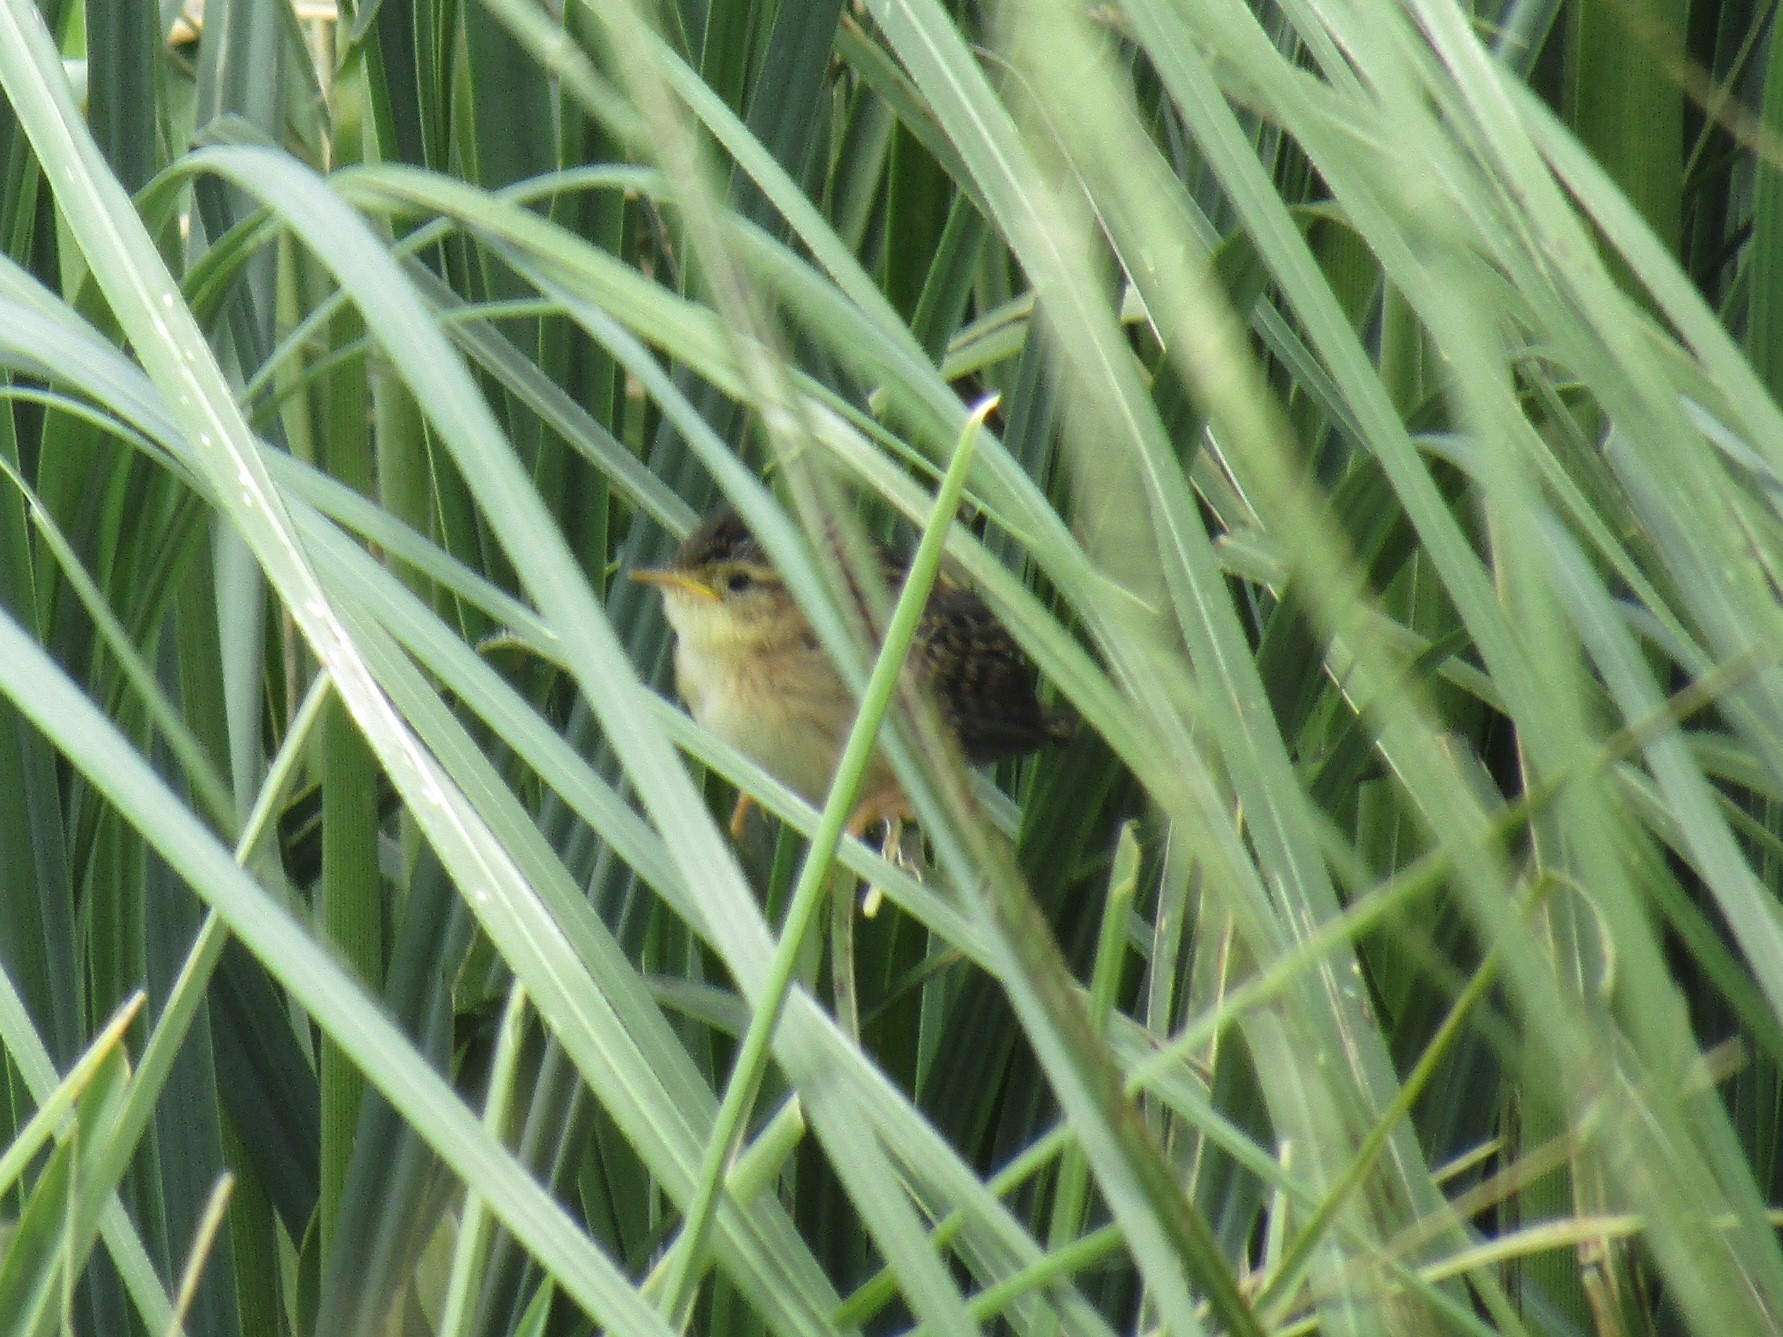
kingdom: Animalia
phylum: Chordata
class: Aves
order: Passeriformes
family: Troglodytidae
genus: Cistothorus
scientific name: Cistothorus platensis
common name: Sedge wren
